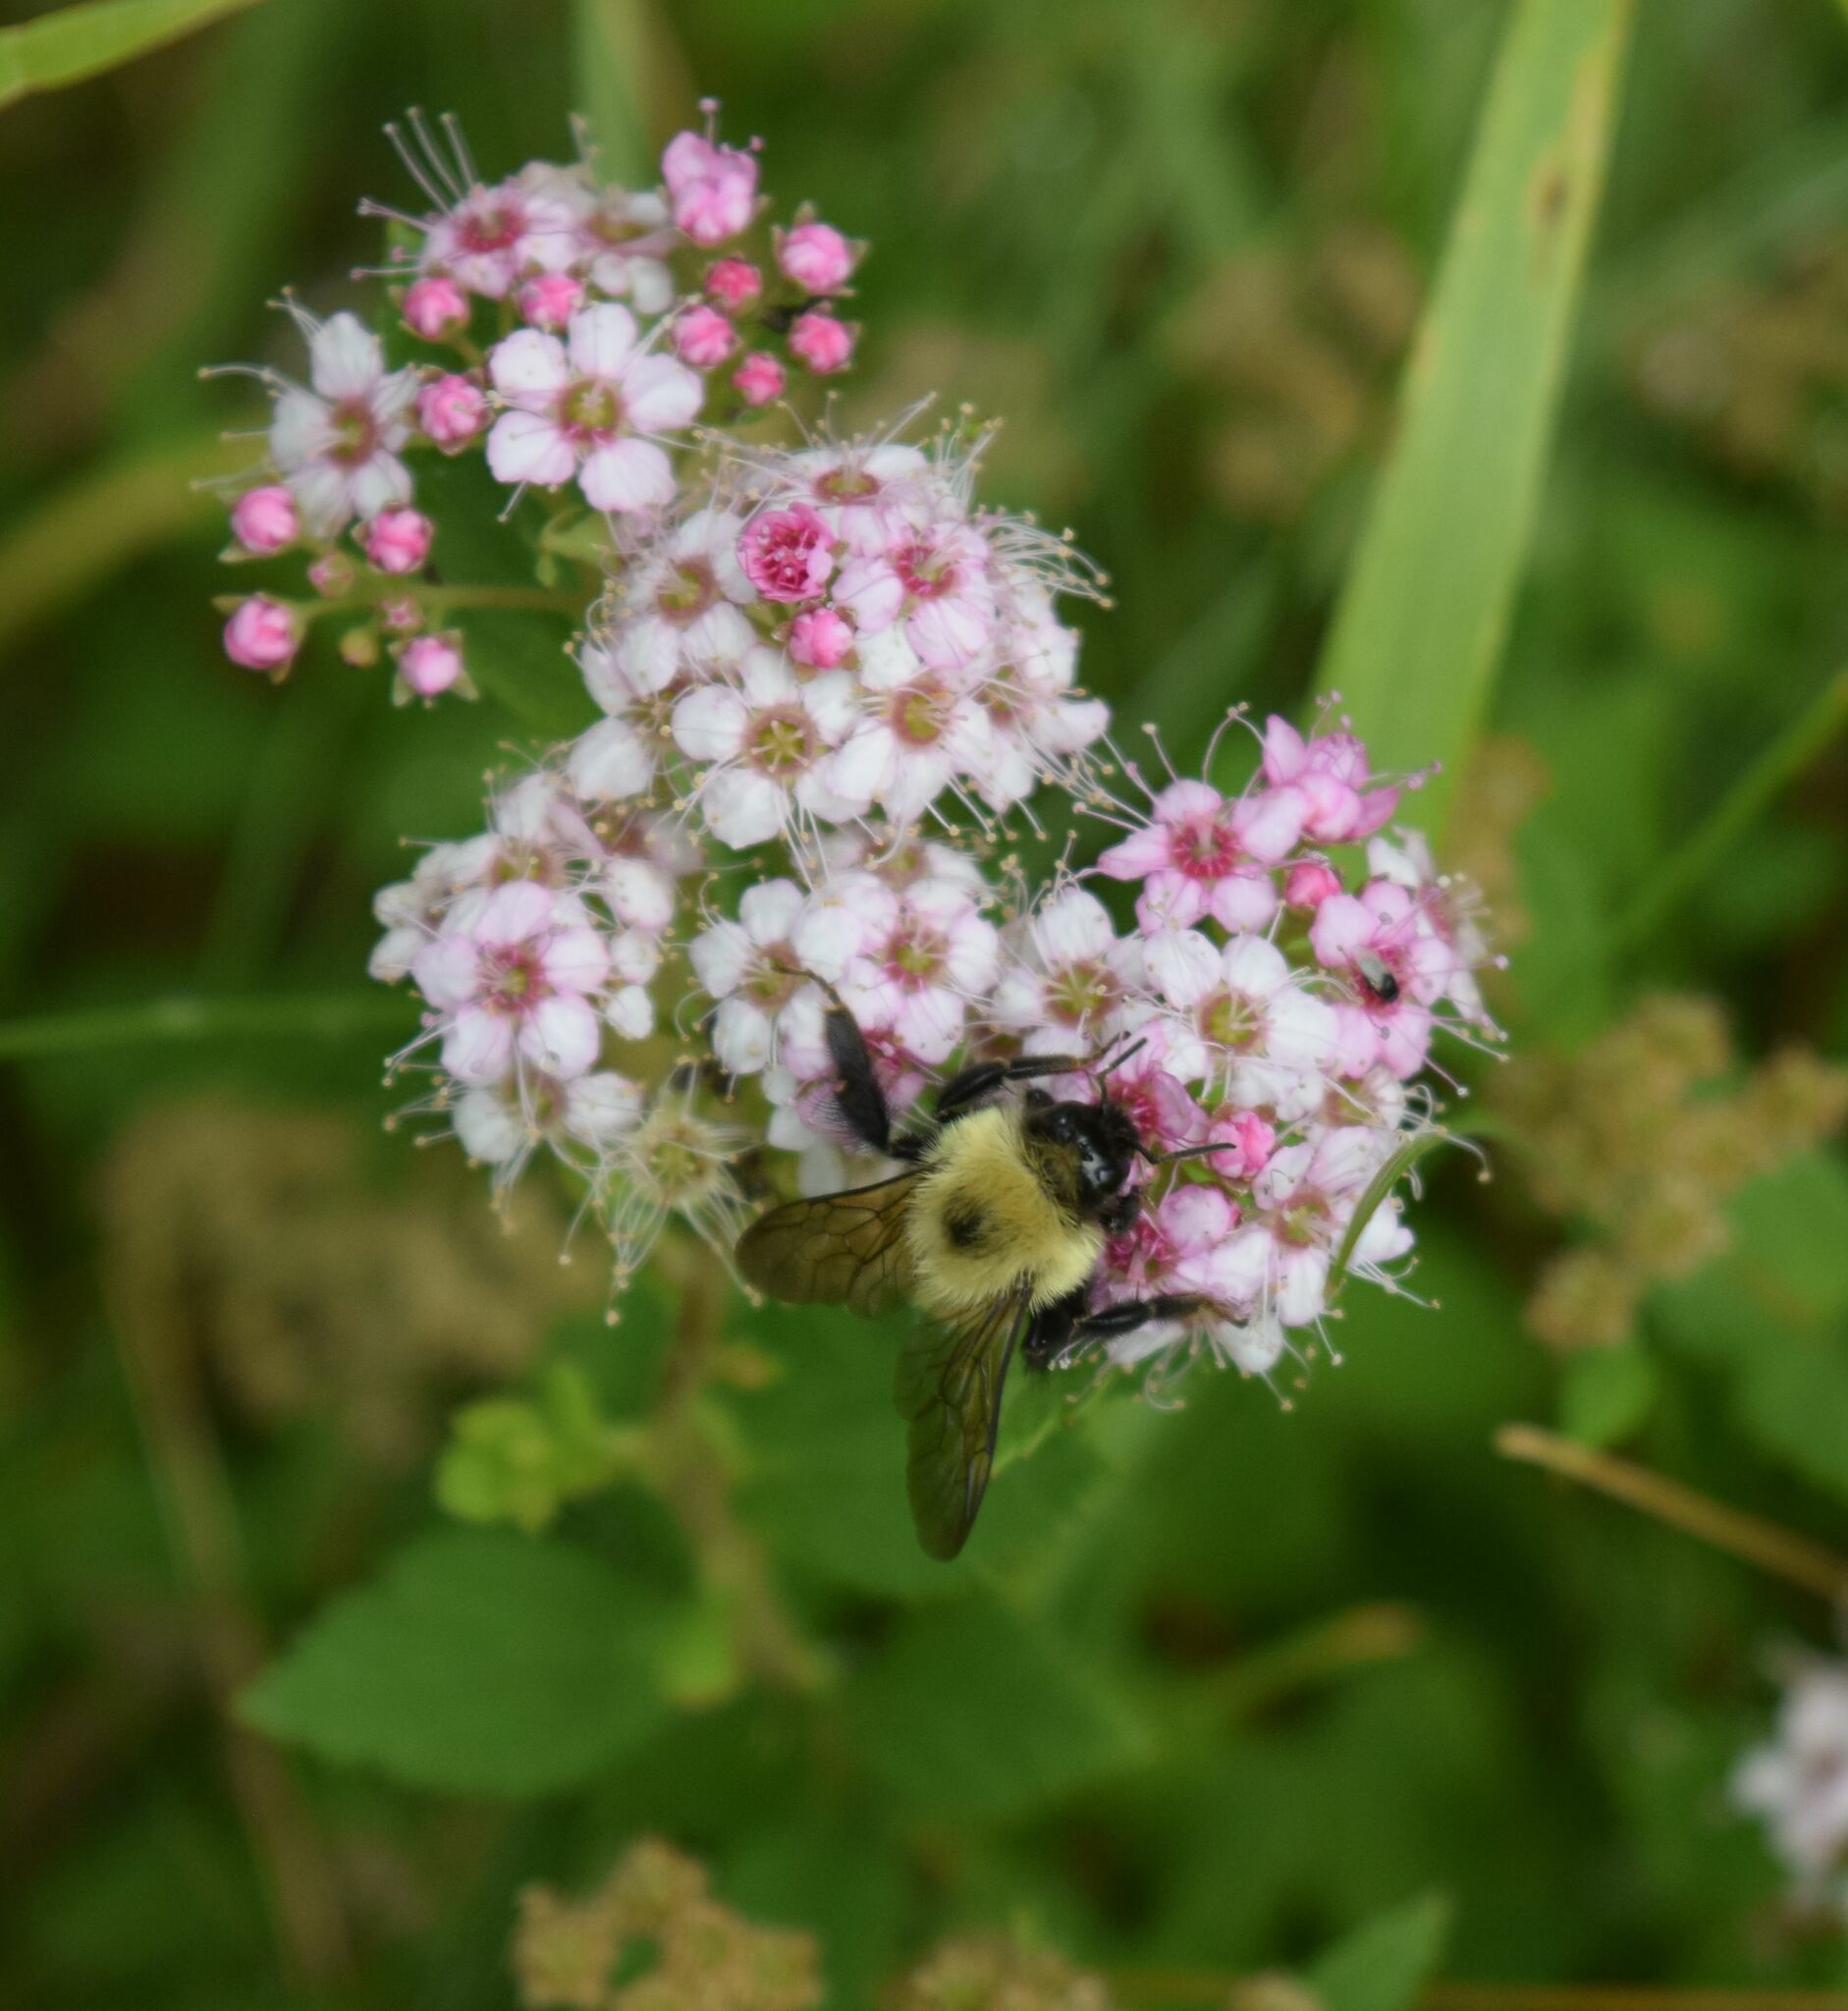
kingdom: Animalia
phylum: Arthropoda
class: Insecta
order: Hymenoptera
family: Apidae
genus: Bombus
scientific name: Bombus bimaculatus
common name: Two-spotted bumble bee
